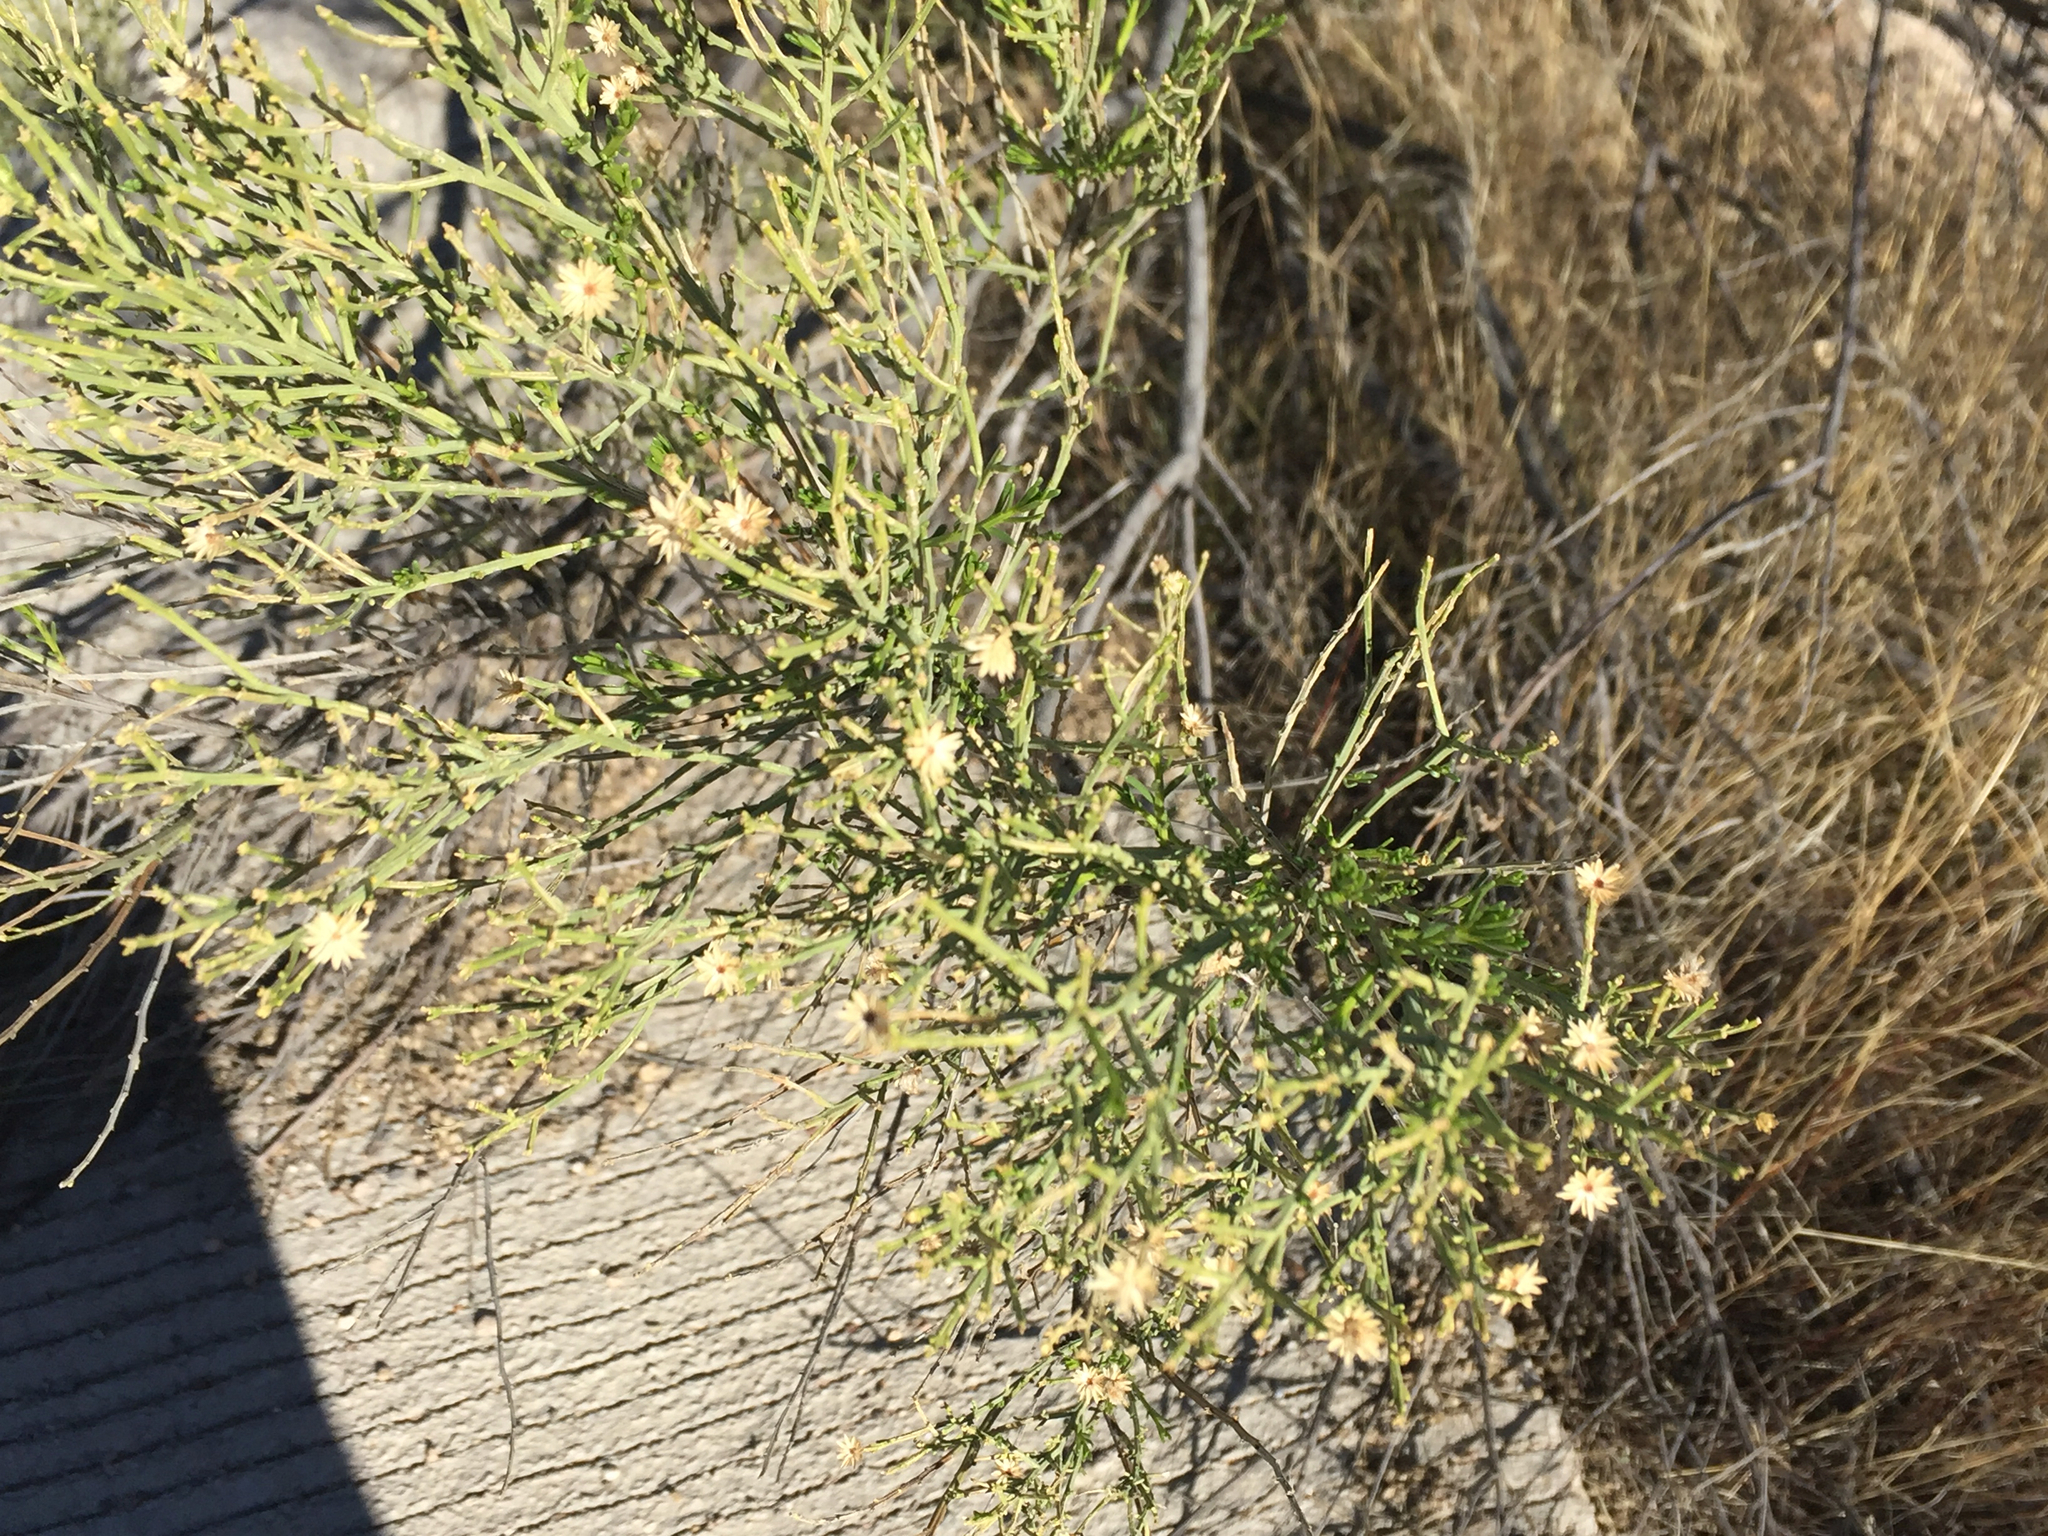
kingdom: Plantae
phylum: Tracheophyta
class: Magnoliopsida
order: Asterales
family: Asteraceae
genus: Baccharis
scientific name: Baccharis sarothroides
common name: Desert-broom
